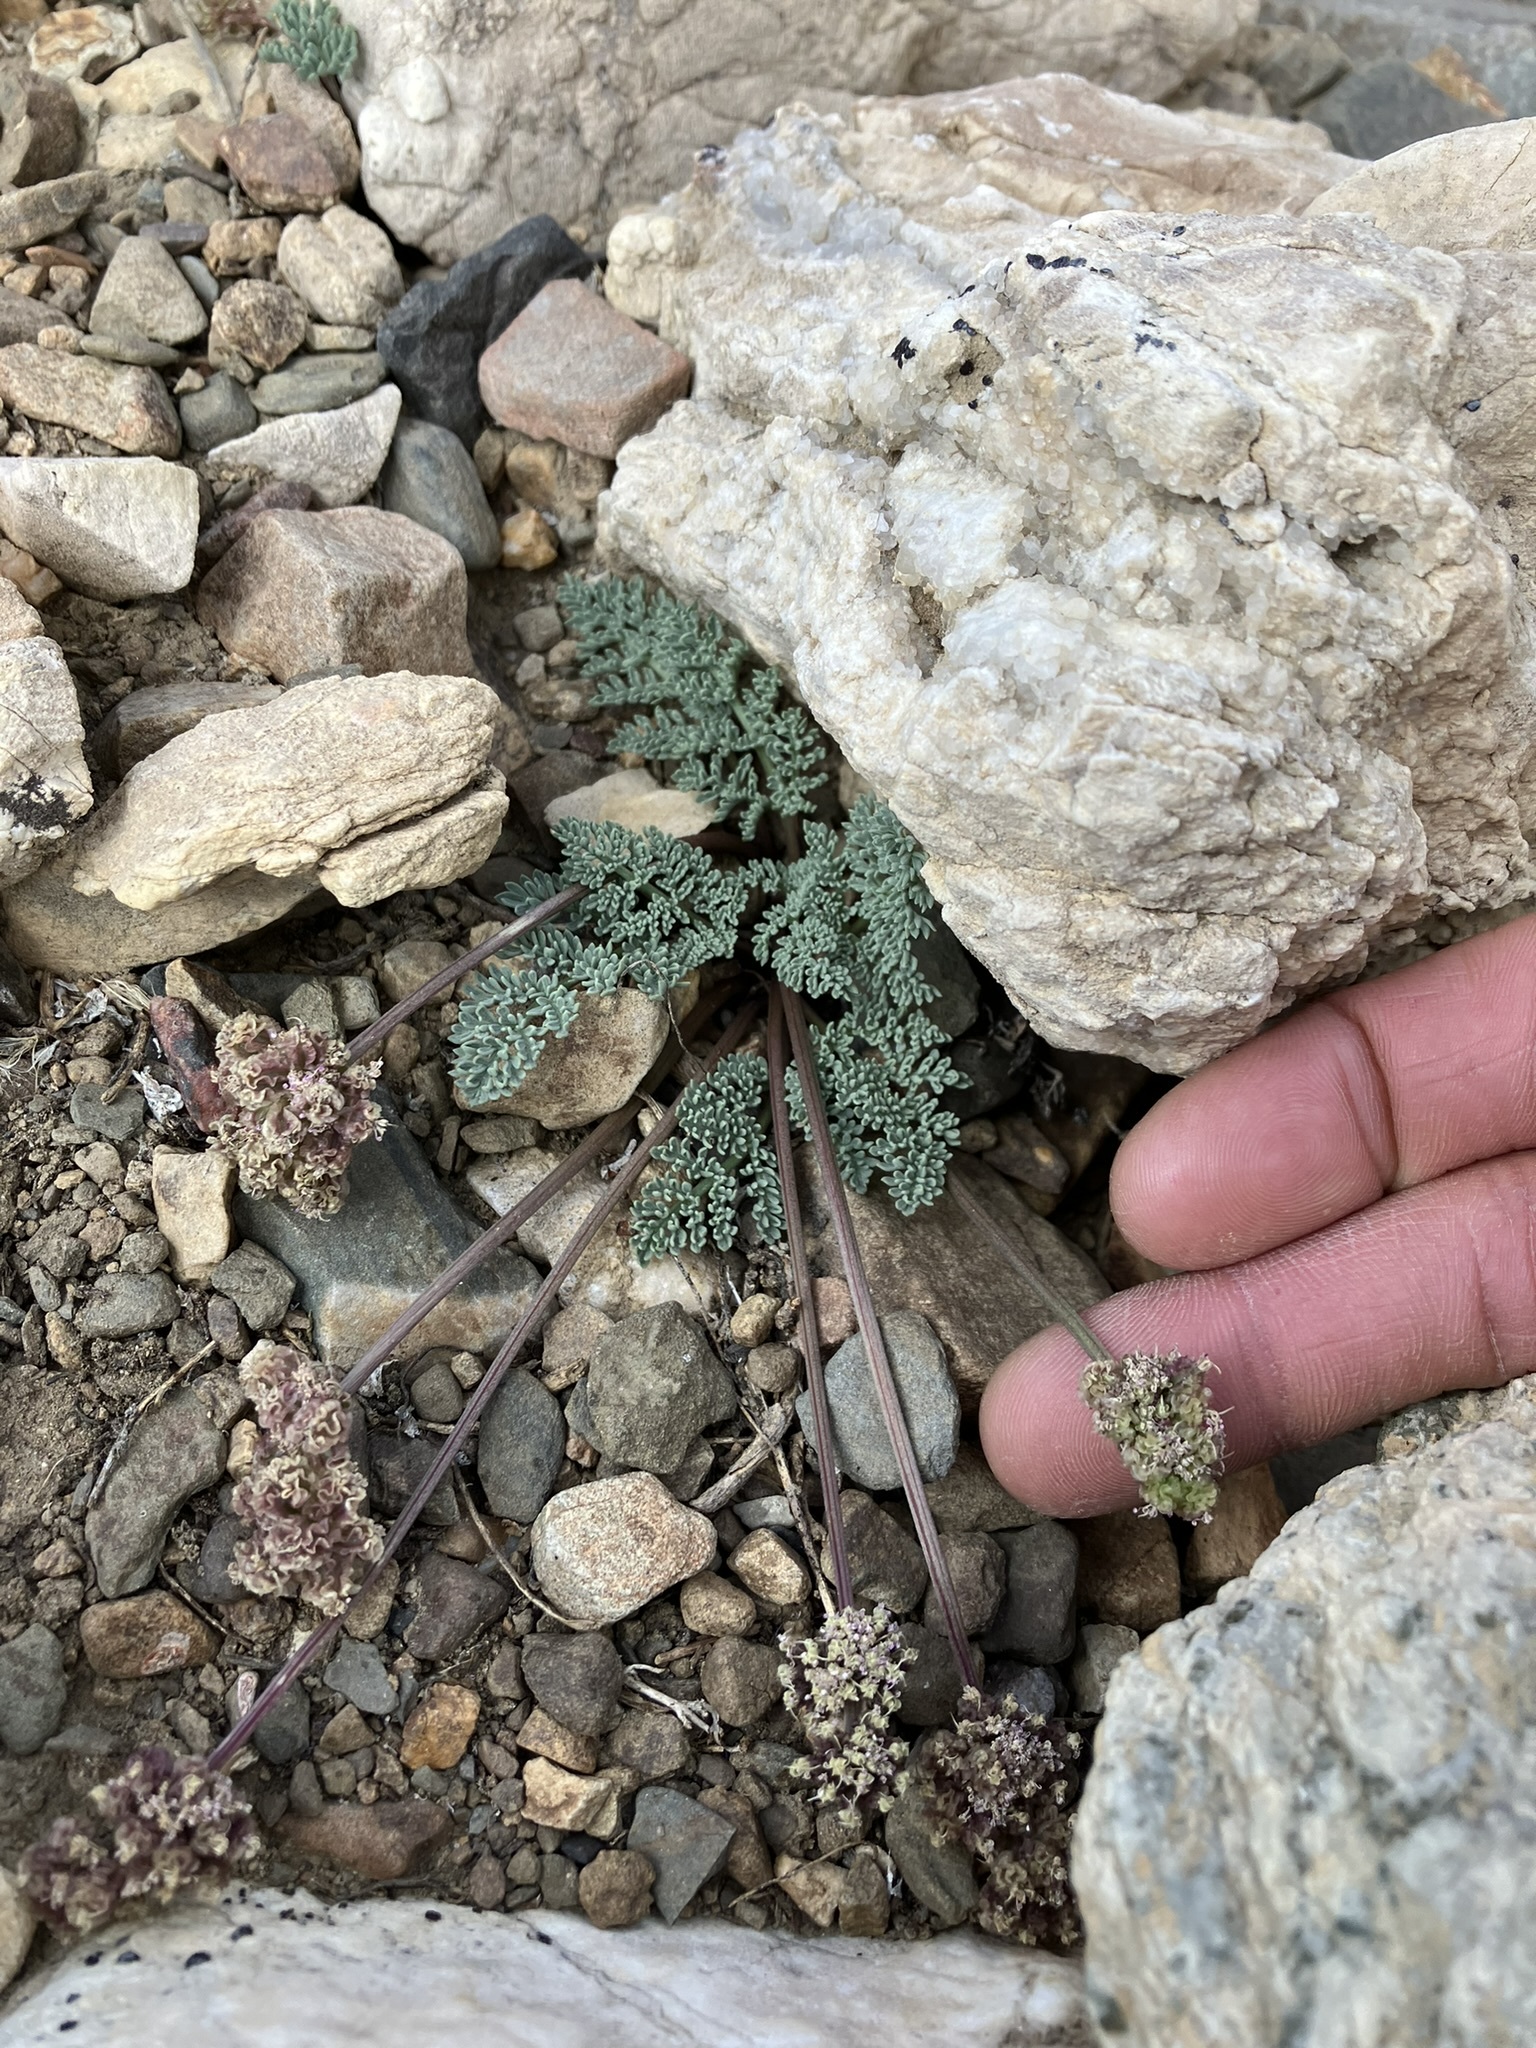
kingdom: Plantae
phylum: Tracheophyta
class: Magnoliopsida
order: Apiales
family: Apiaceae
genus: Aulospermum
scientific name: Aulospermum cinerarium
